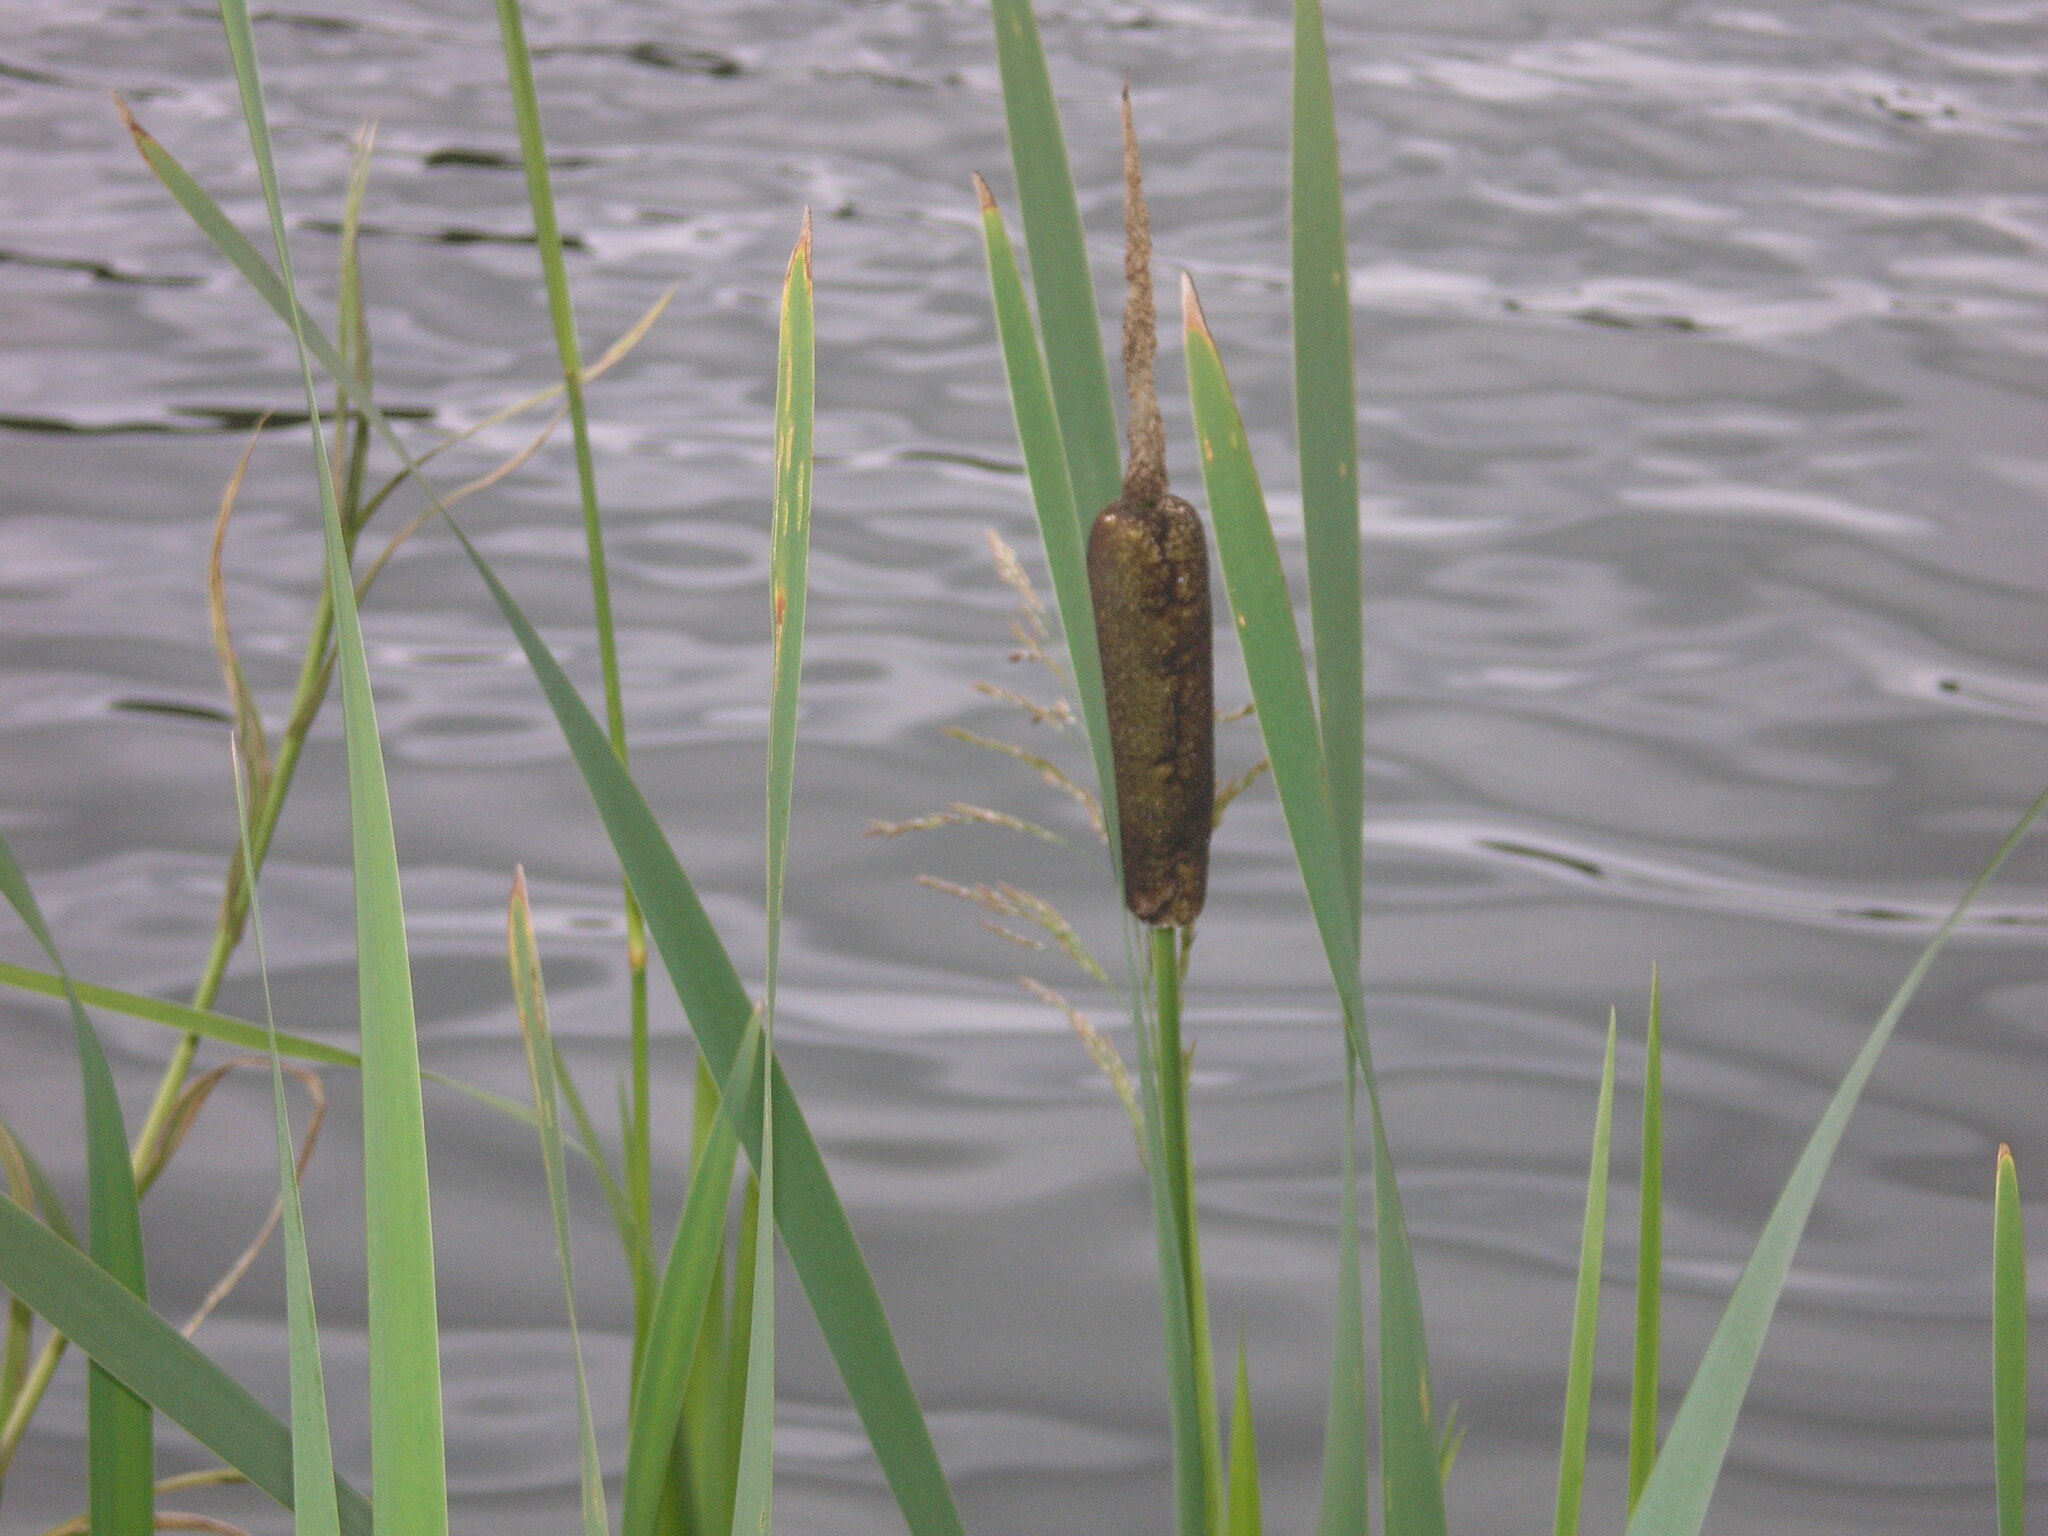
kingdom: Plantae
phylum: Tracheophyta
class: Liliopsida
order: Poales
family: Typhaceae
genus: Typha
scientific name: Typha latifolia
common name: Broadleaf cattail
